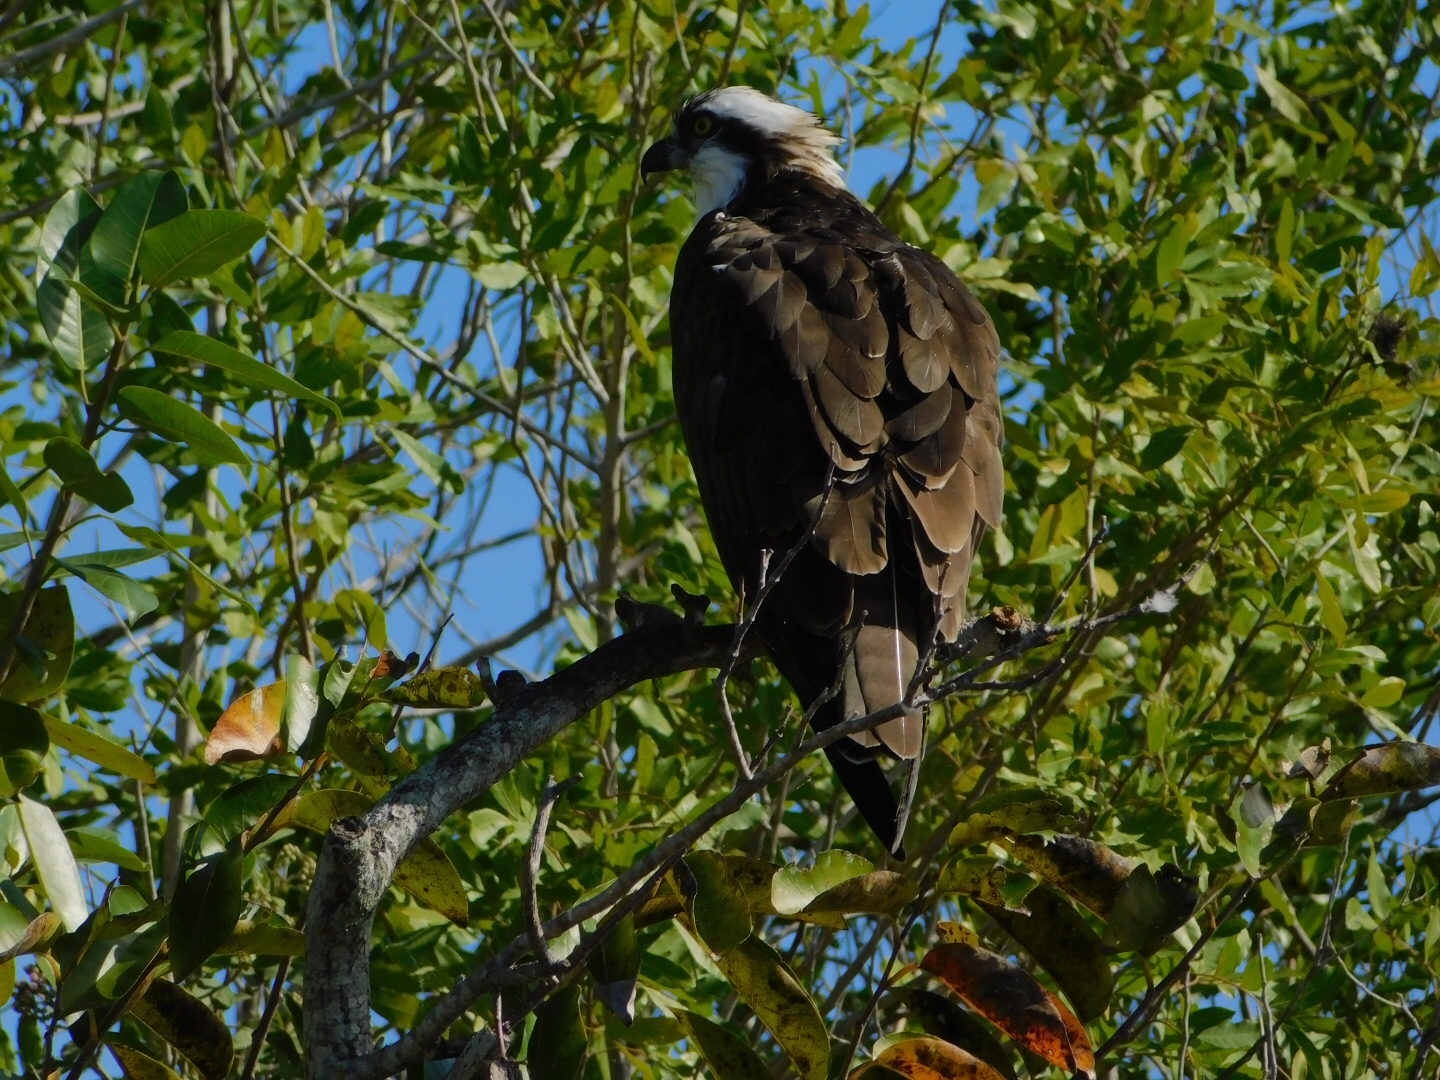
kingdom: Animalia
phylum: Chordata
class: Aves
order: Accipitriformes
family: Pandionidae
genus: Pandion
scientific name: Pandion haliaetus
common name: Osprey
